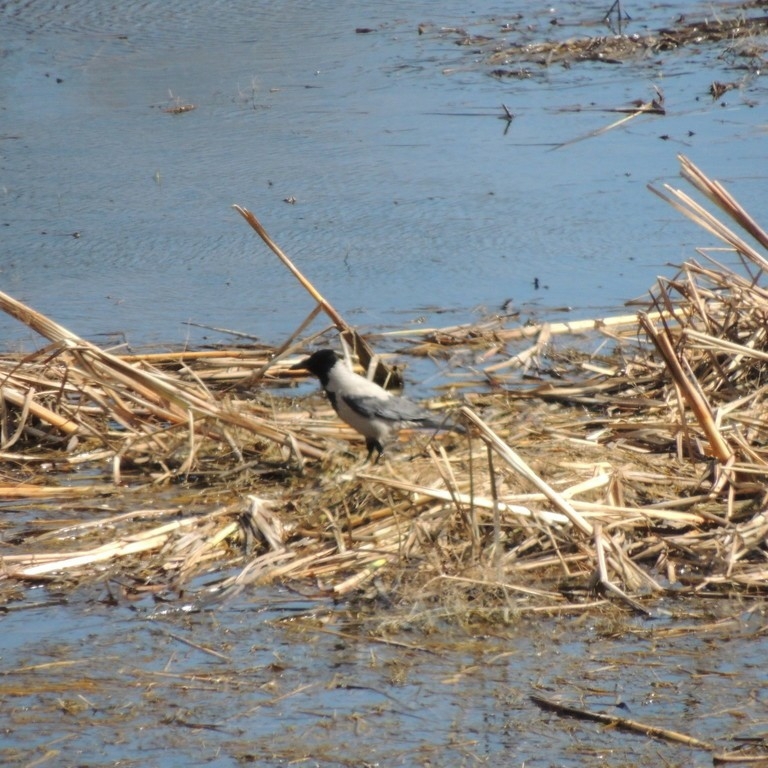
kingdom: Animalia
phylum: Chordata
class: Aves
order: Passeriformes
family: Corvidae
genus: Corvus
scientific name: Corvus cornix
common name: Hooded crow
